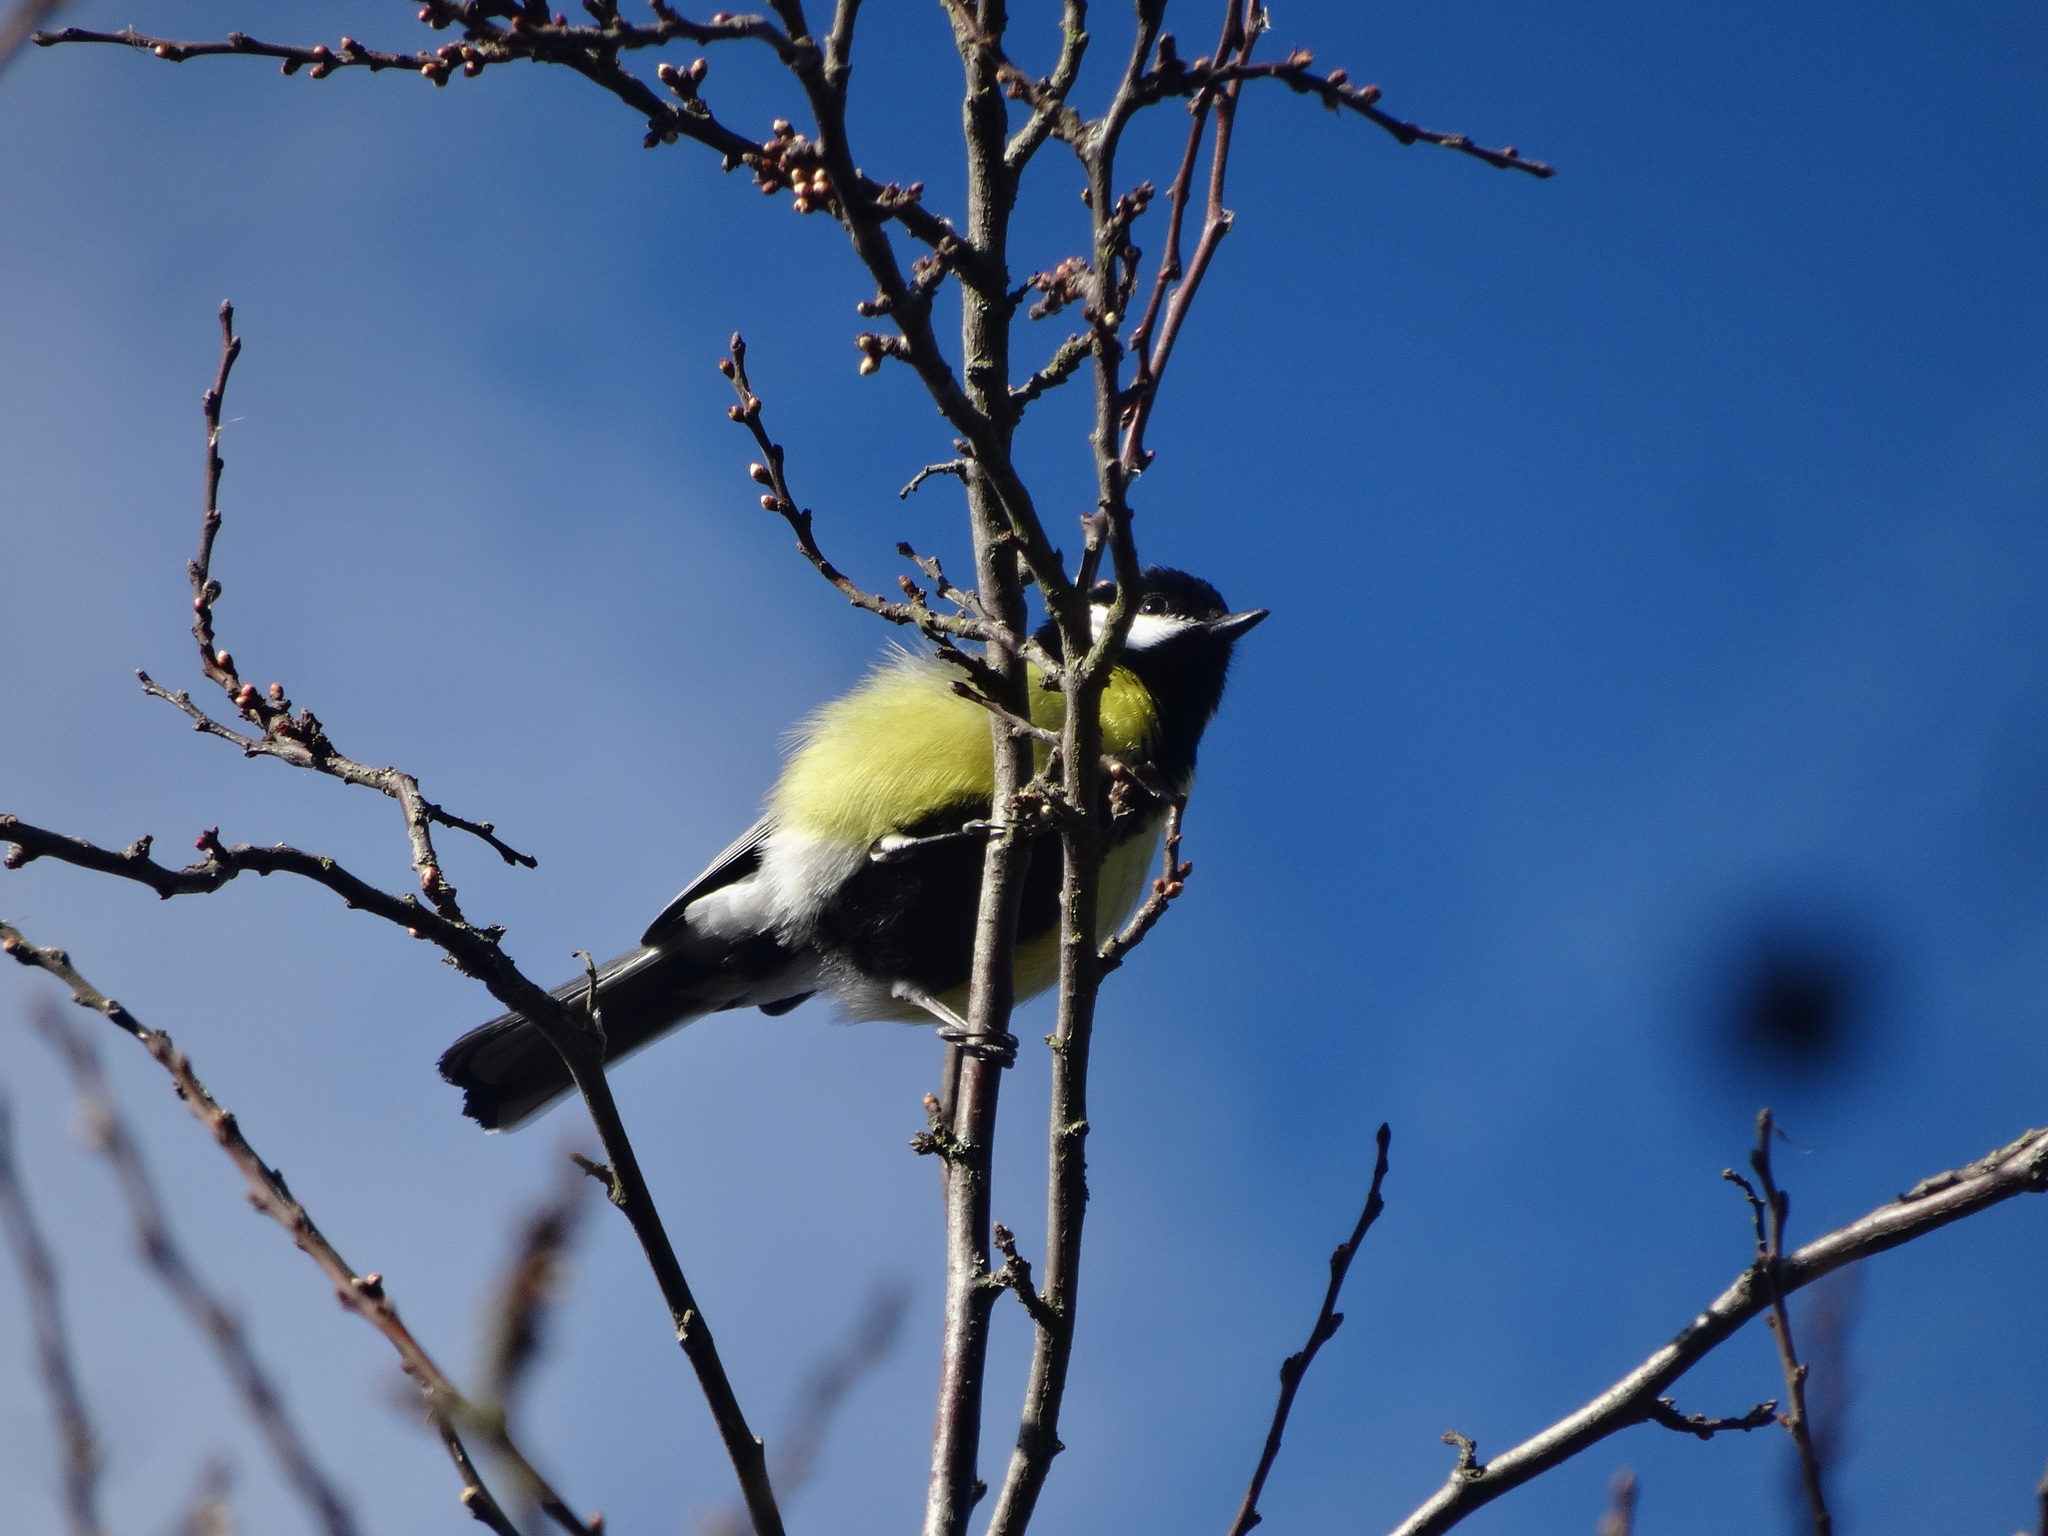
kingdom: Animalia
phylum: Chordata
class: Aves
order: Passeriformes
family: Paridae
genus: Parus
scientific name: Parus major
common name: Great tit
